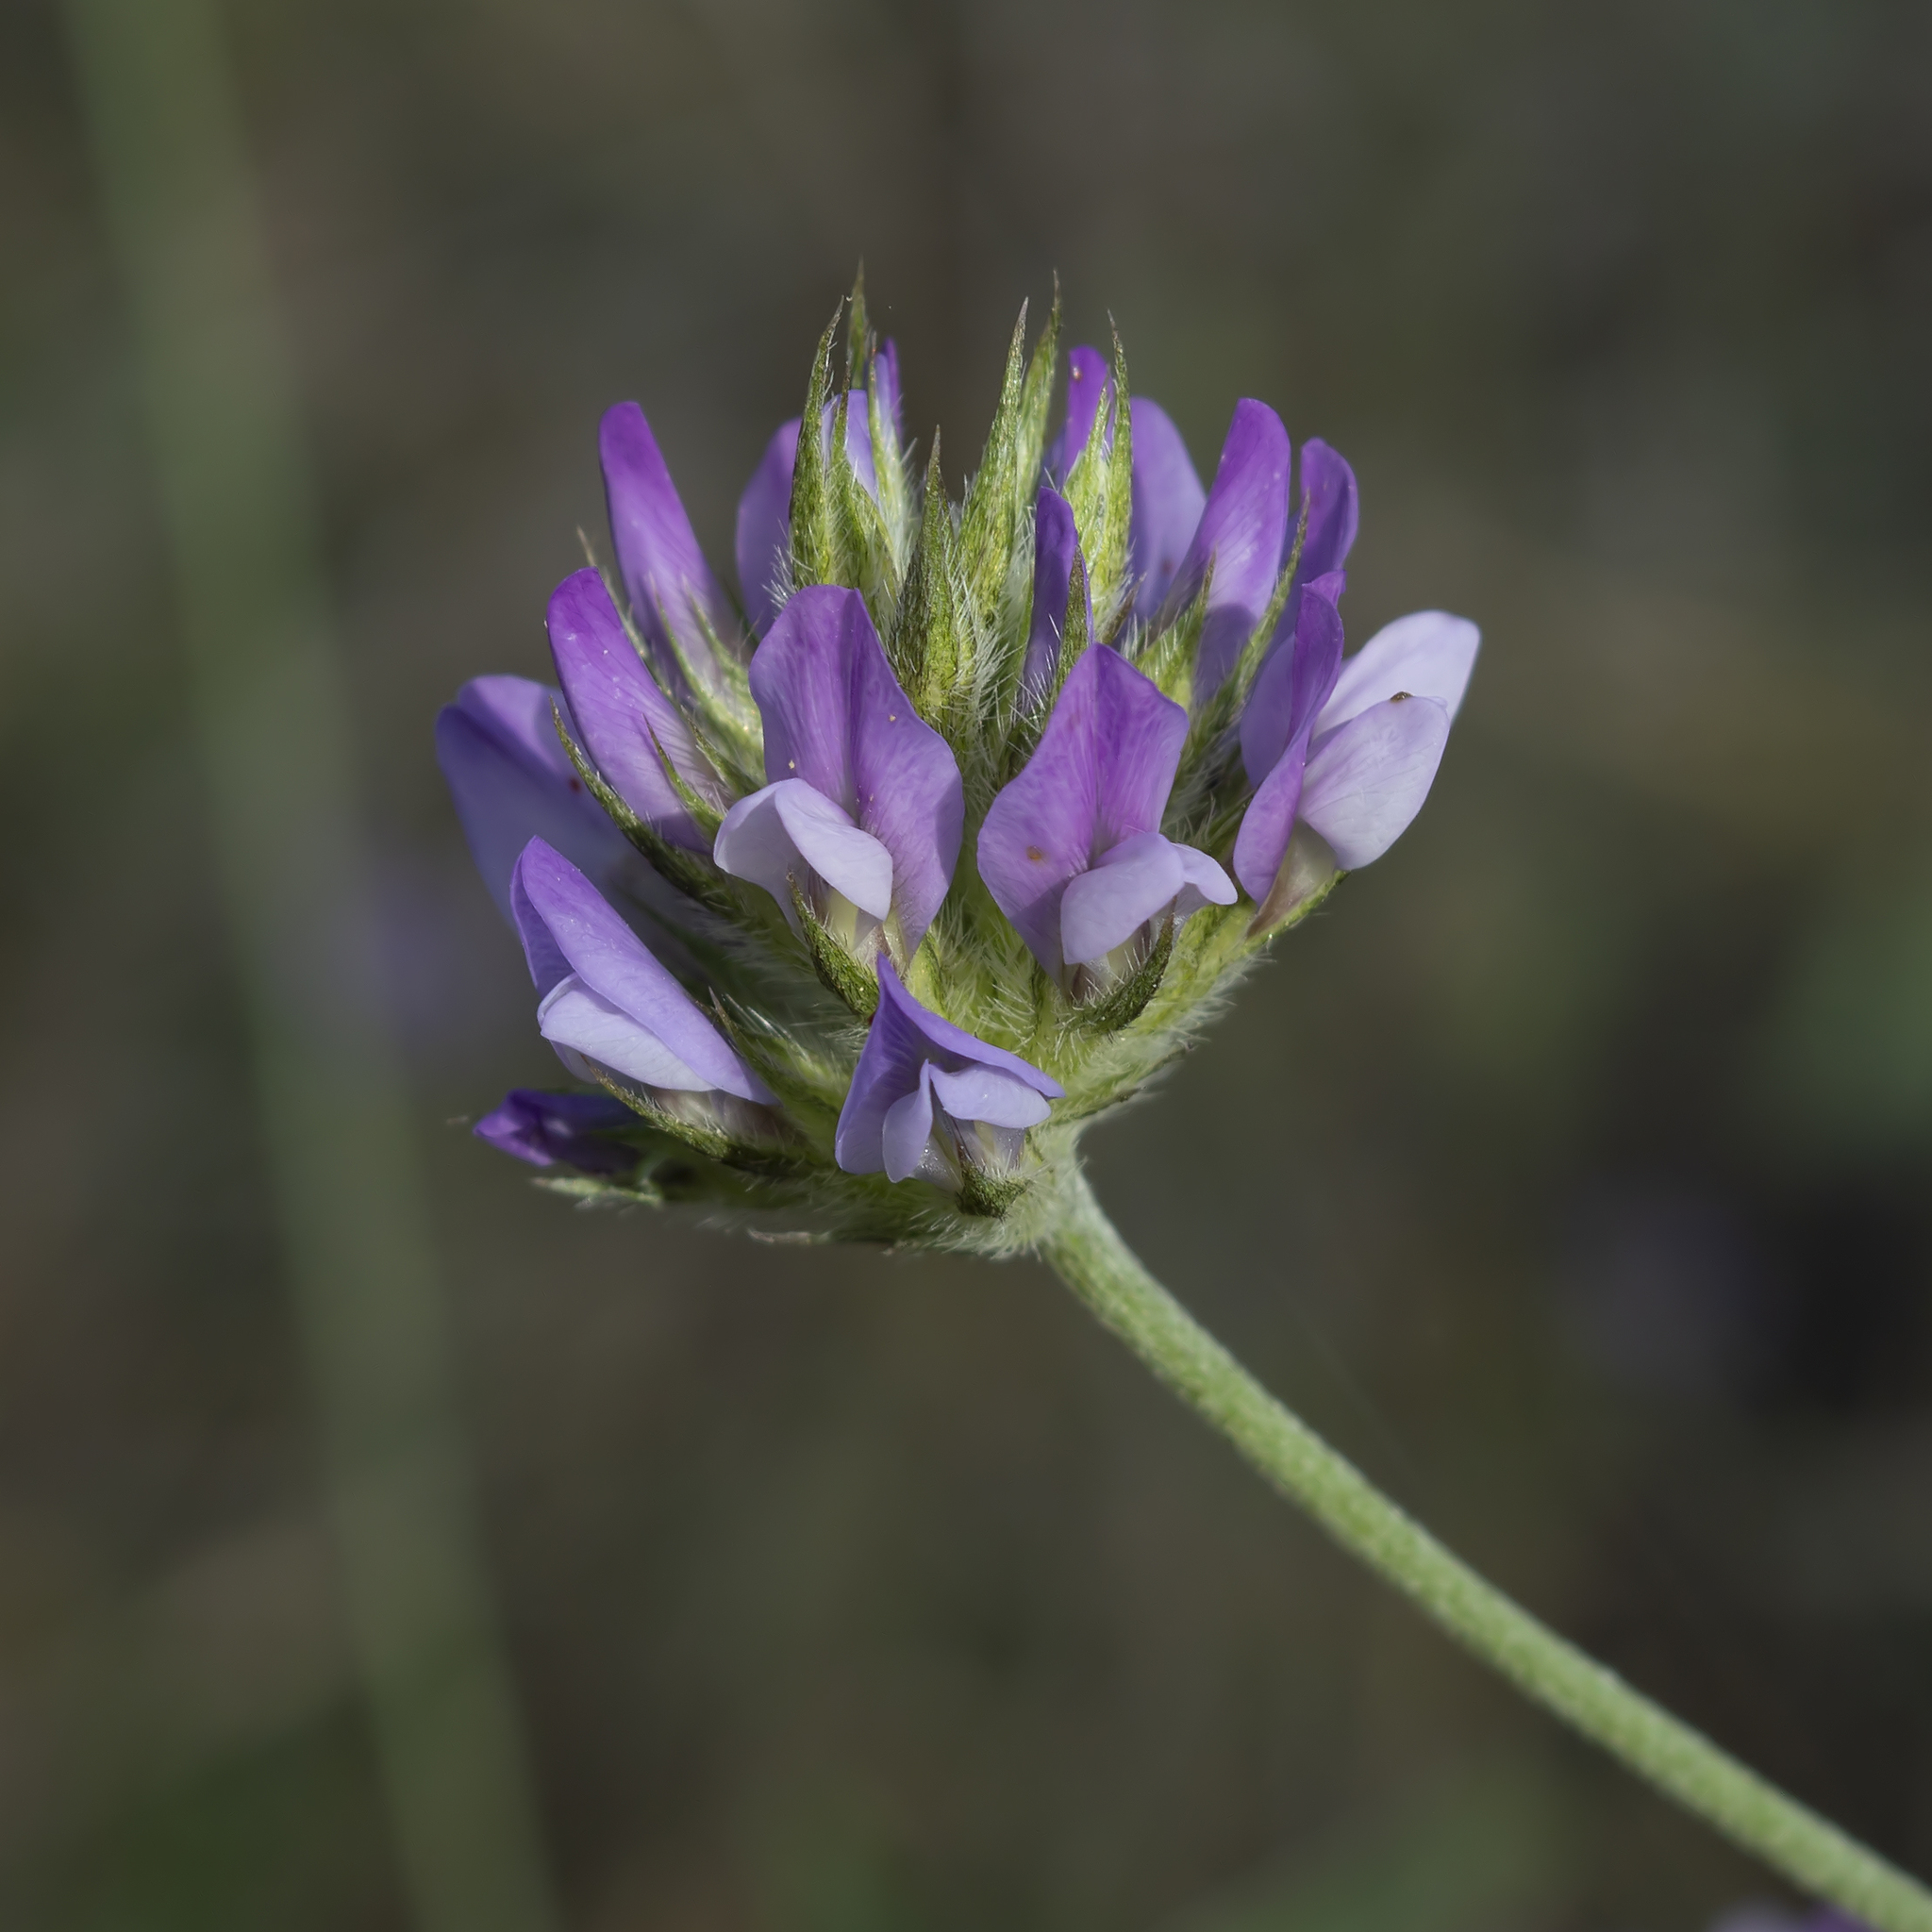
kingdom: Plantae
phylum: Tracheophyta
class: Magnoliopsida
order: Fabales
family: Fabaceae
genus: Bituminaria
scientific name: Bituminaria bituminosa
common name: Arabian pea
